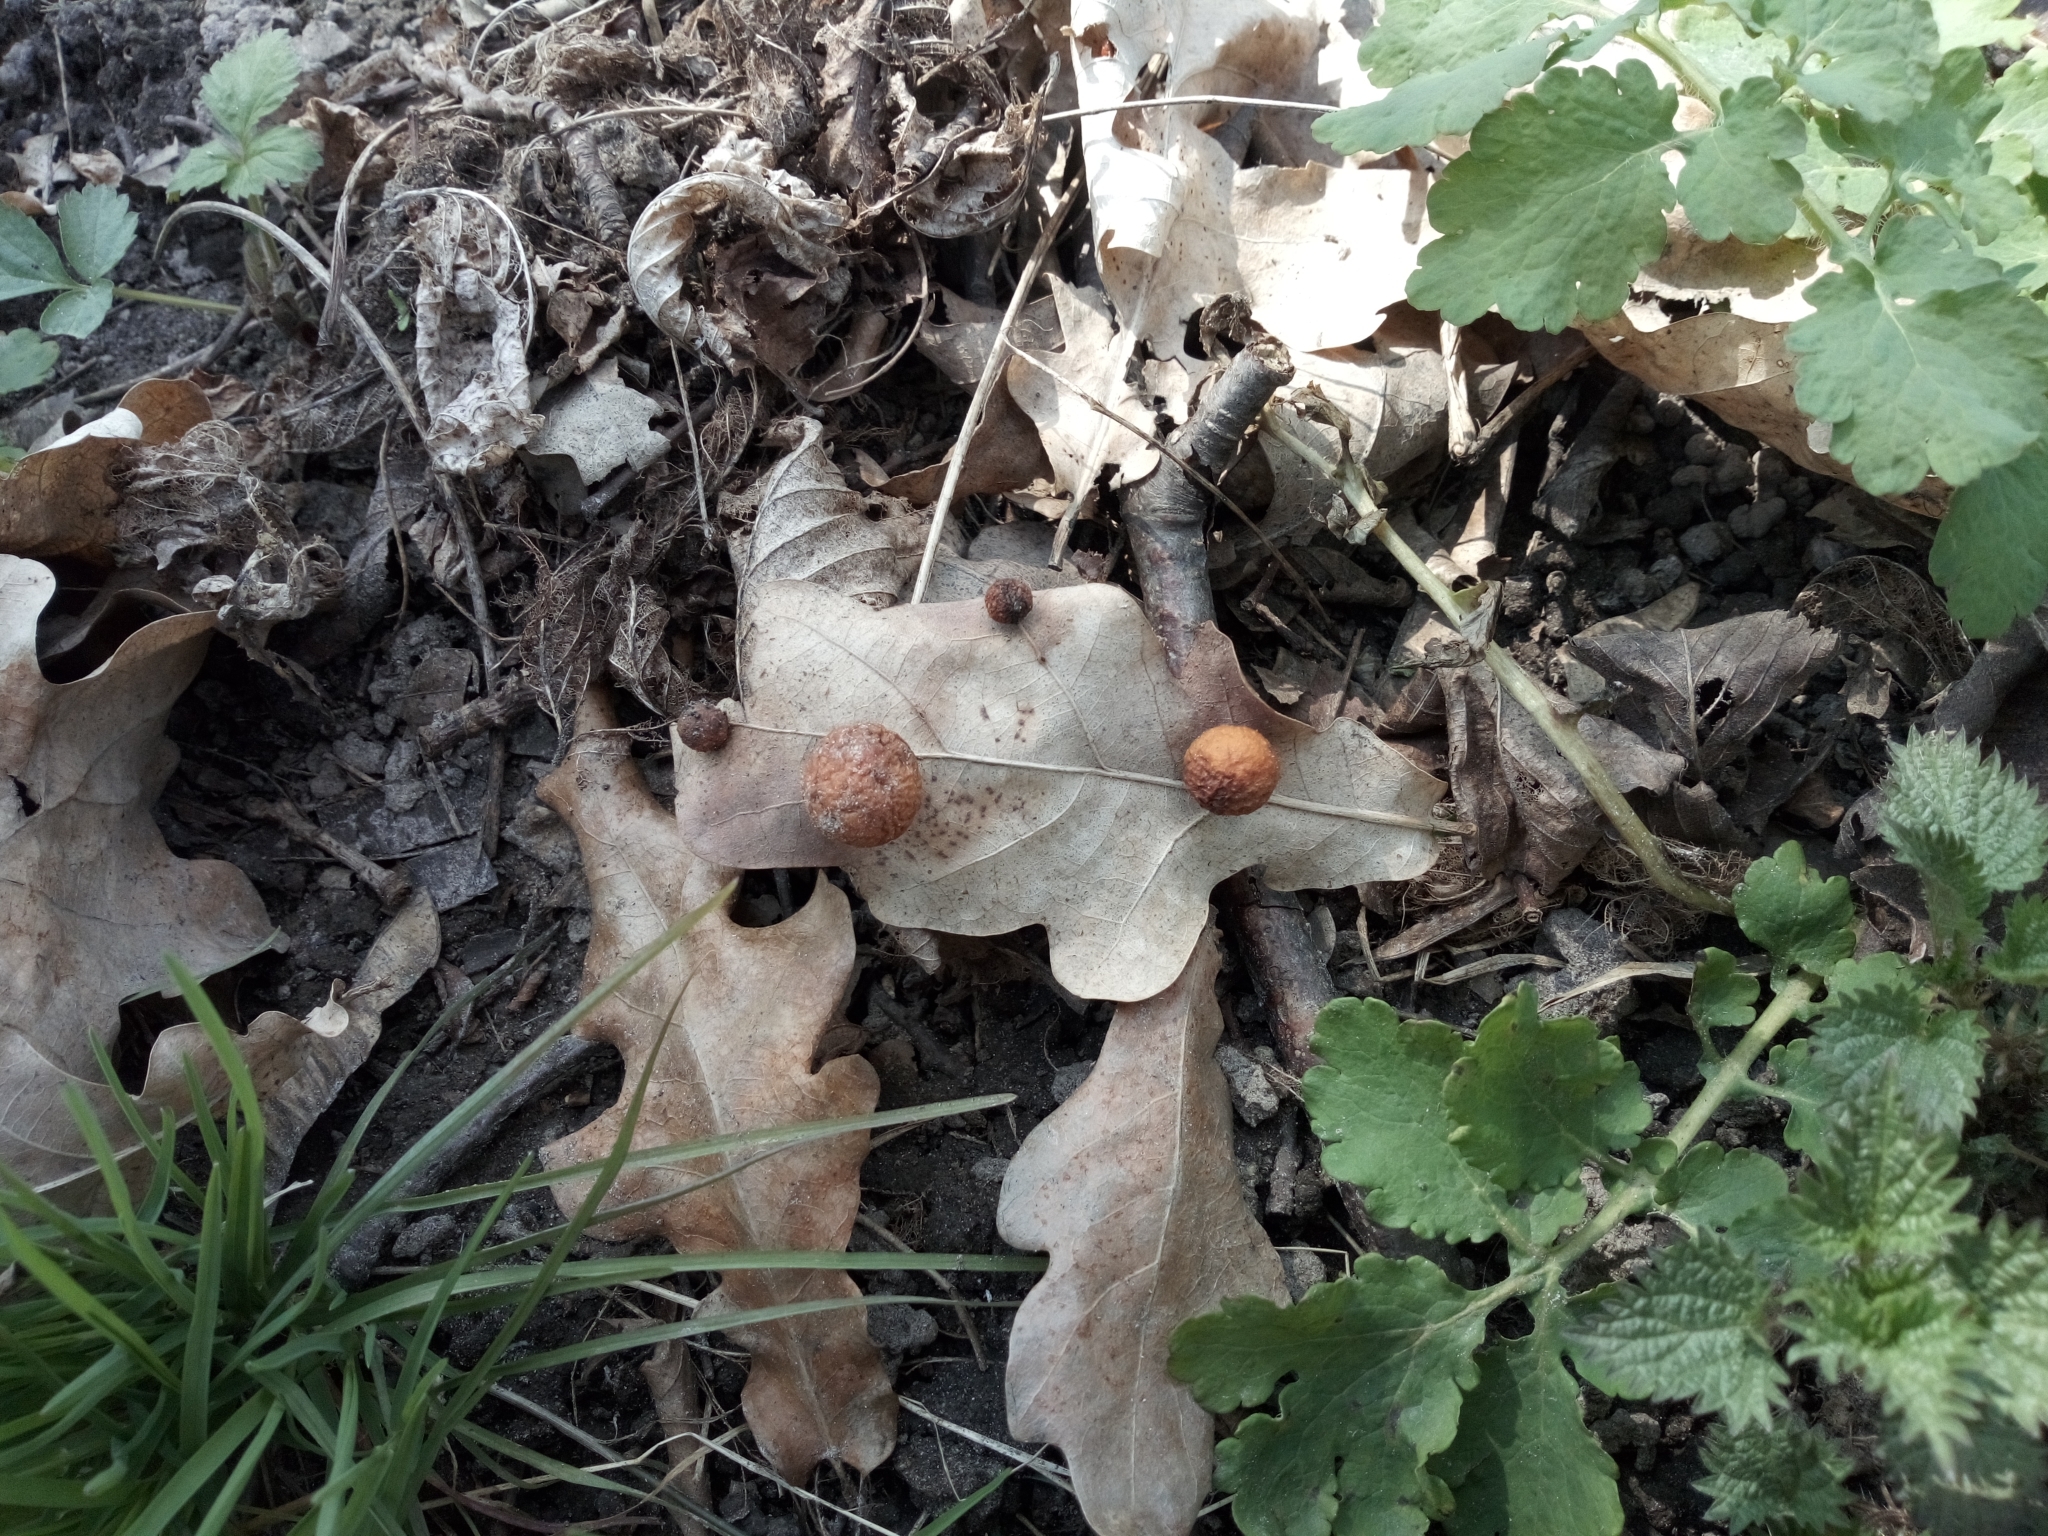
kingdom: Animalia
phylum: Arthropoda
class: Insecta
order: Hymenoptera
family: Cynipidae
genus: Cynips
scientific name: Cynips quercusfolii
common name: Cherry gall
